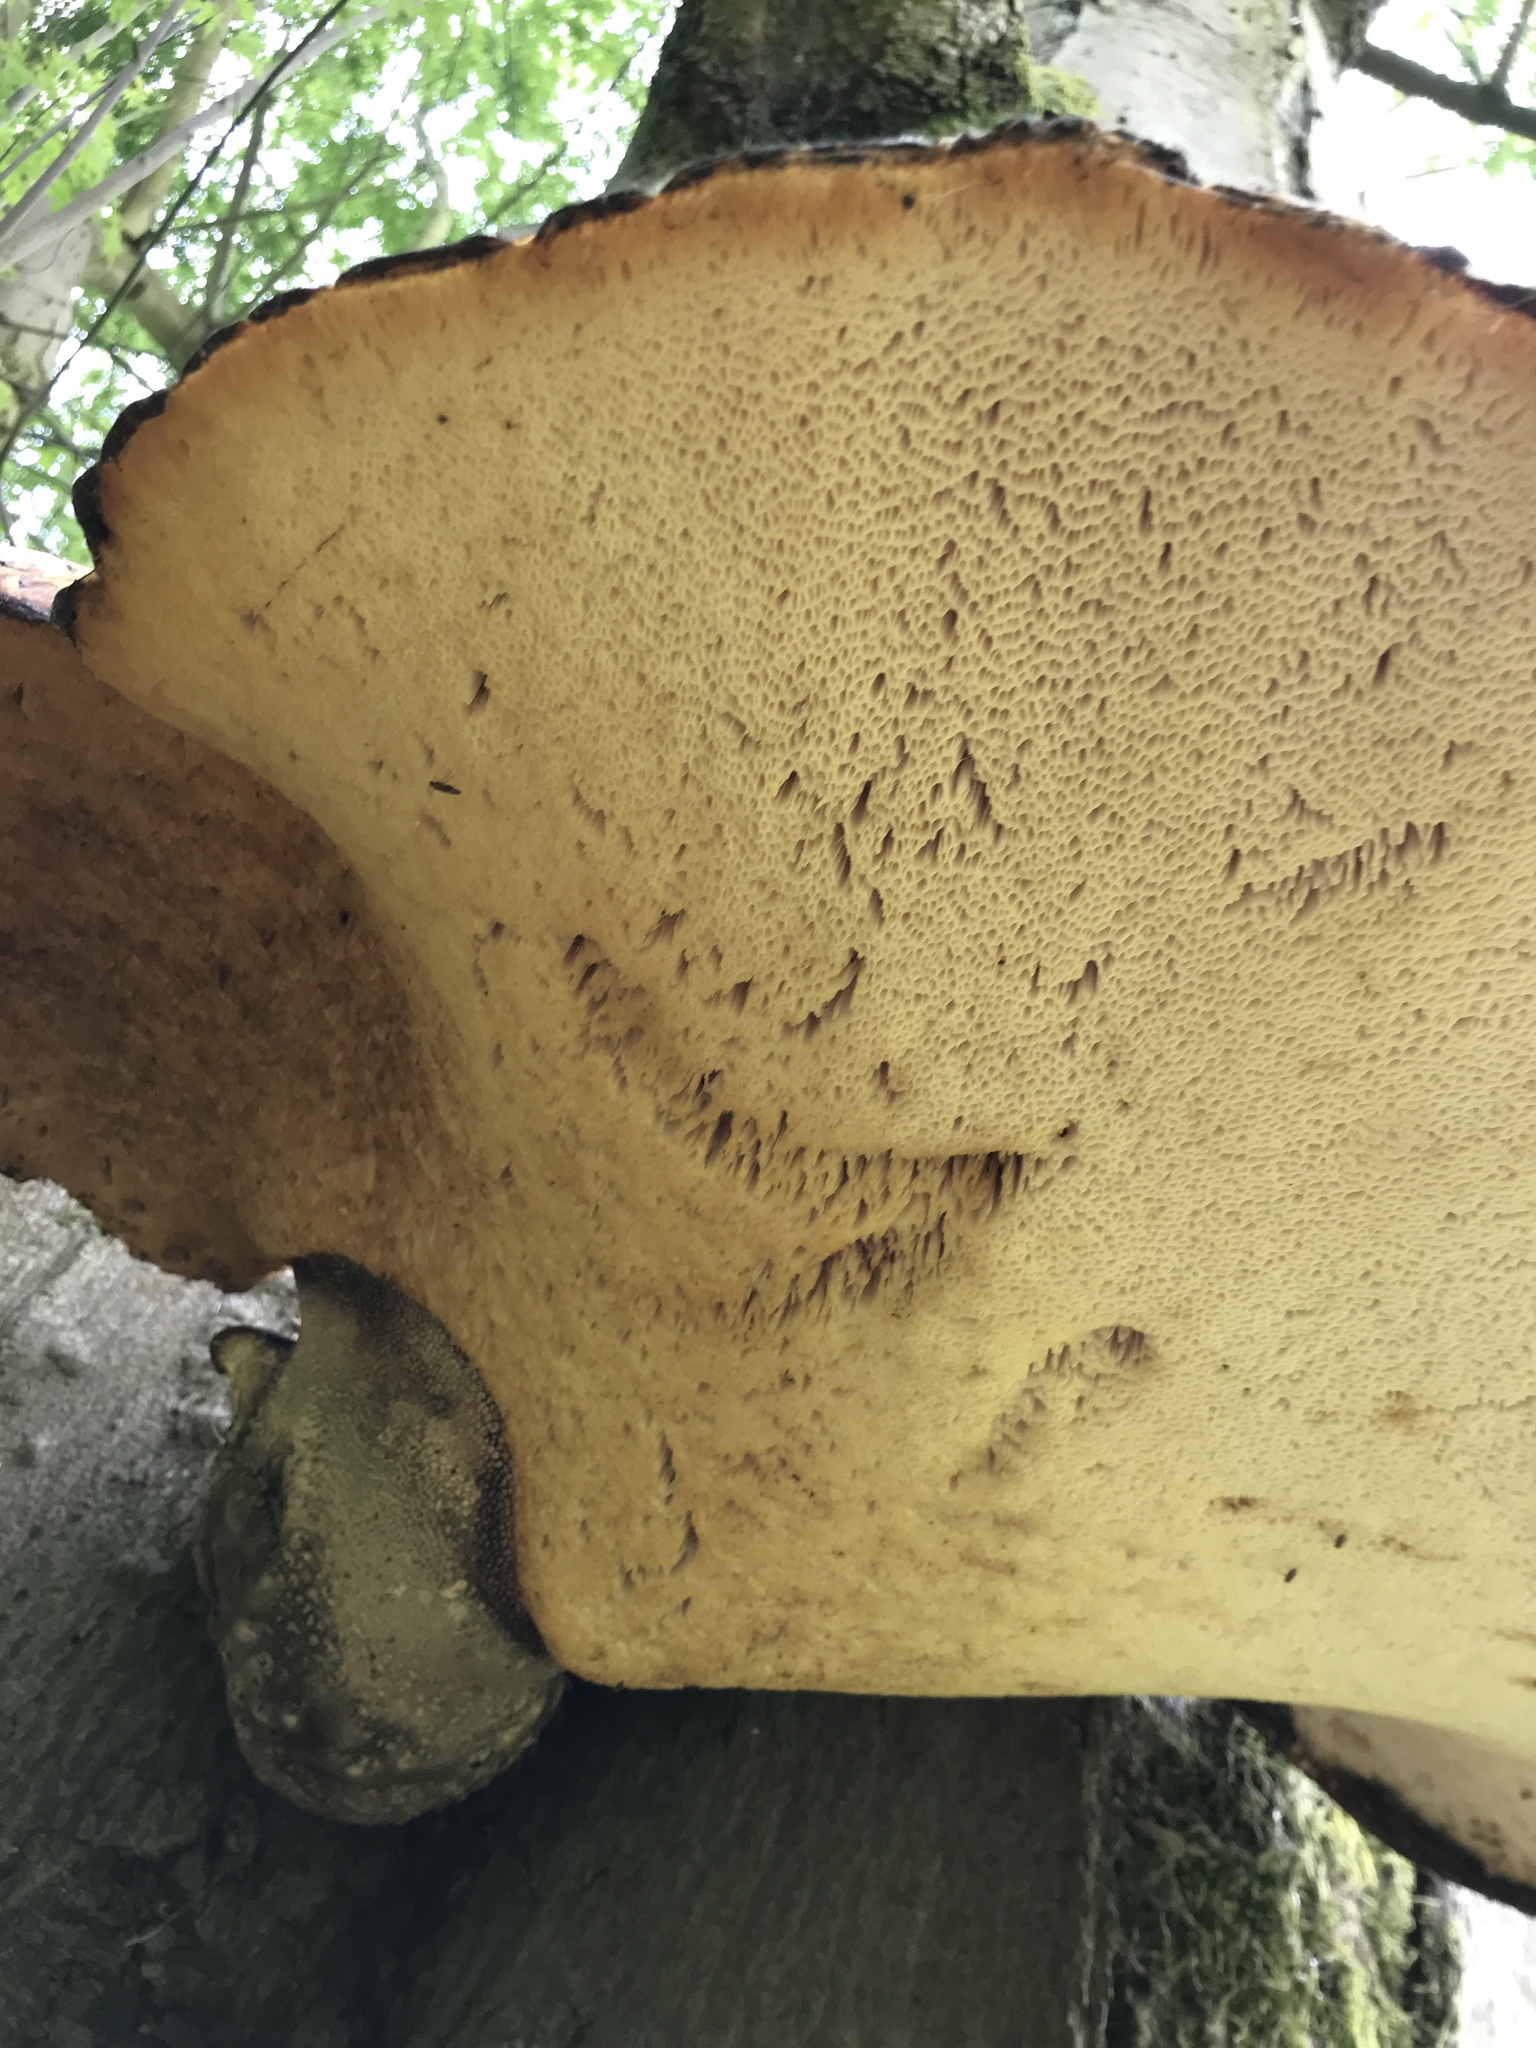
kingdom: Fungi
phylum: Basidiomycota
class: Agaricomycetes
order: Polyporales
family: Polyporaceae
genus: Cerioporus
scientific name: Cerioporus squamosus
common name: Dryad's saddle
